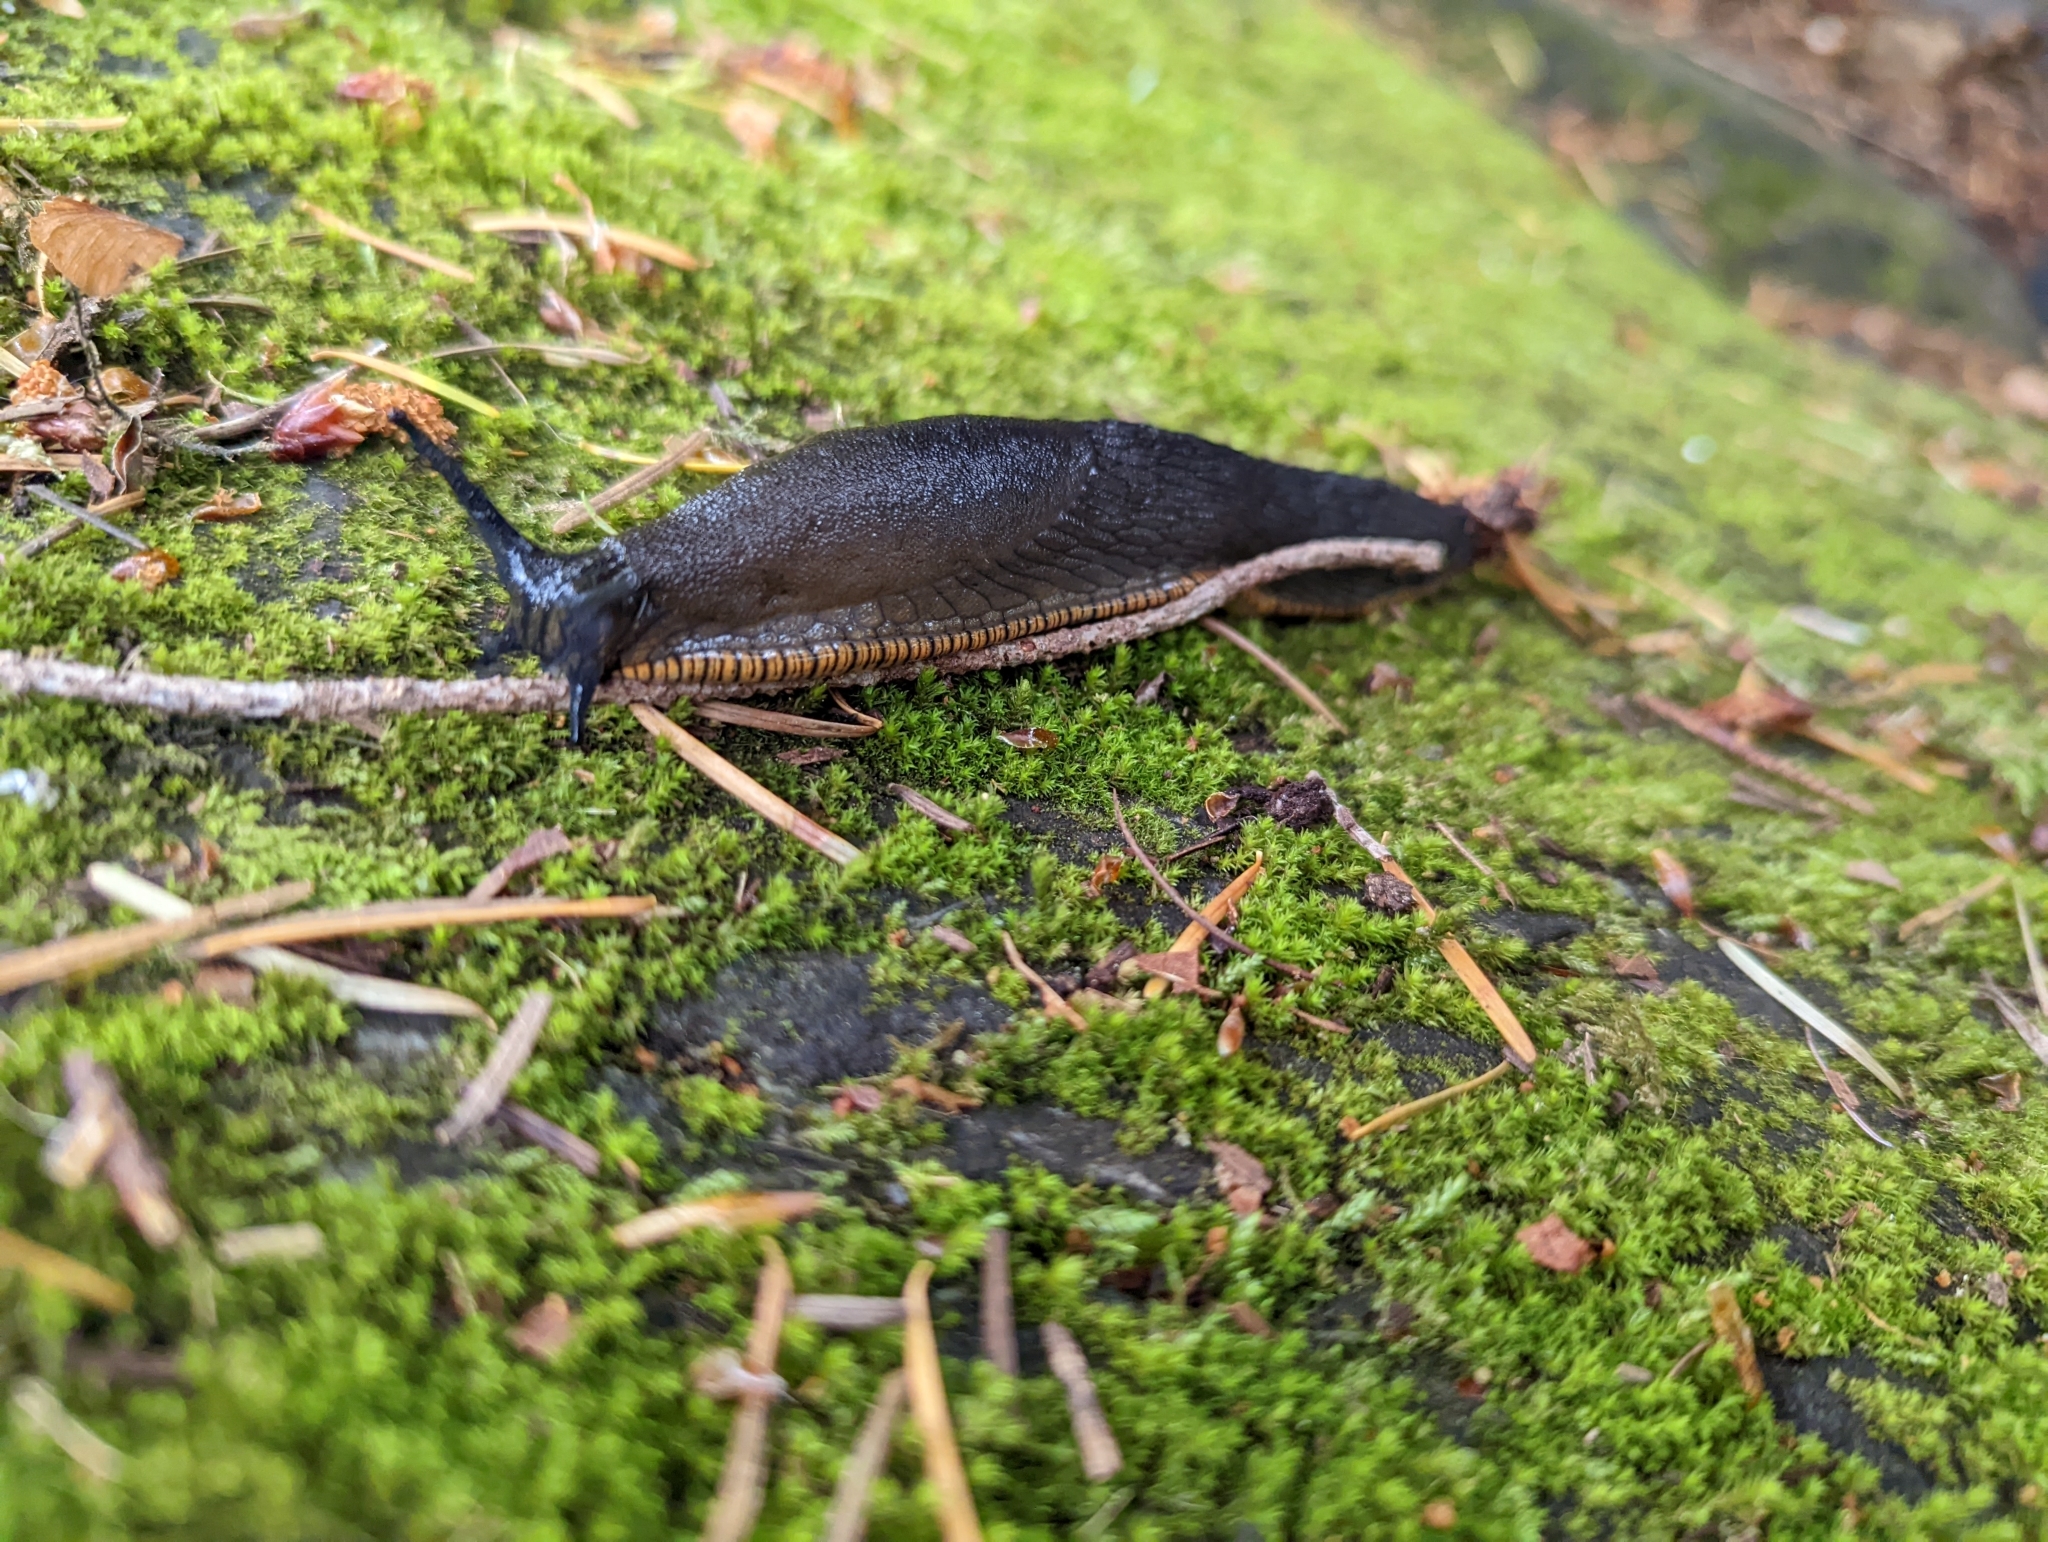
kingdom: Animalia
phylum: Mollusca
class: Gastropoda
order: Stylommatophora
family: Arionidae
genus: Arion
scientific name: Arion
